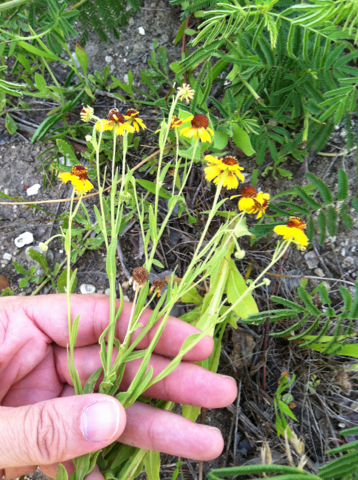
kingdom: Plantae
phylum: Tracheophyta
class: Magnoliopsida
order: Asterales
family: Asteraceae
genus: Helenium
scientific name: Helenium elegans
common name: Pretty sneezeweed
